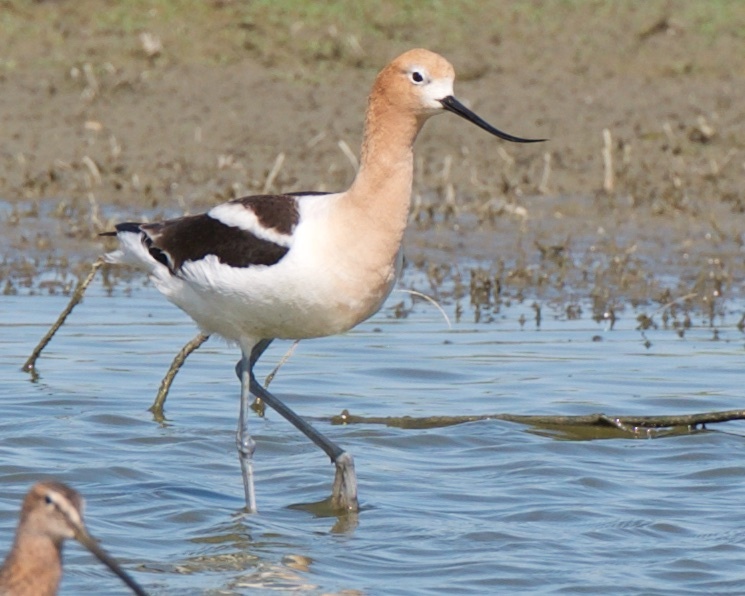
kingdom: Animalia
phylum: Chordata
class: Aves
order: Charadriiformes
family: Recurvirostridae
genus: Recurvirostra
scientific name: Recurvirostra americana
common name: American avocet
